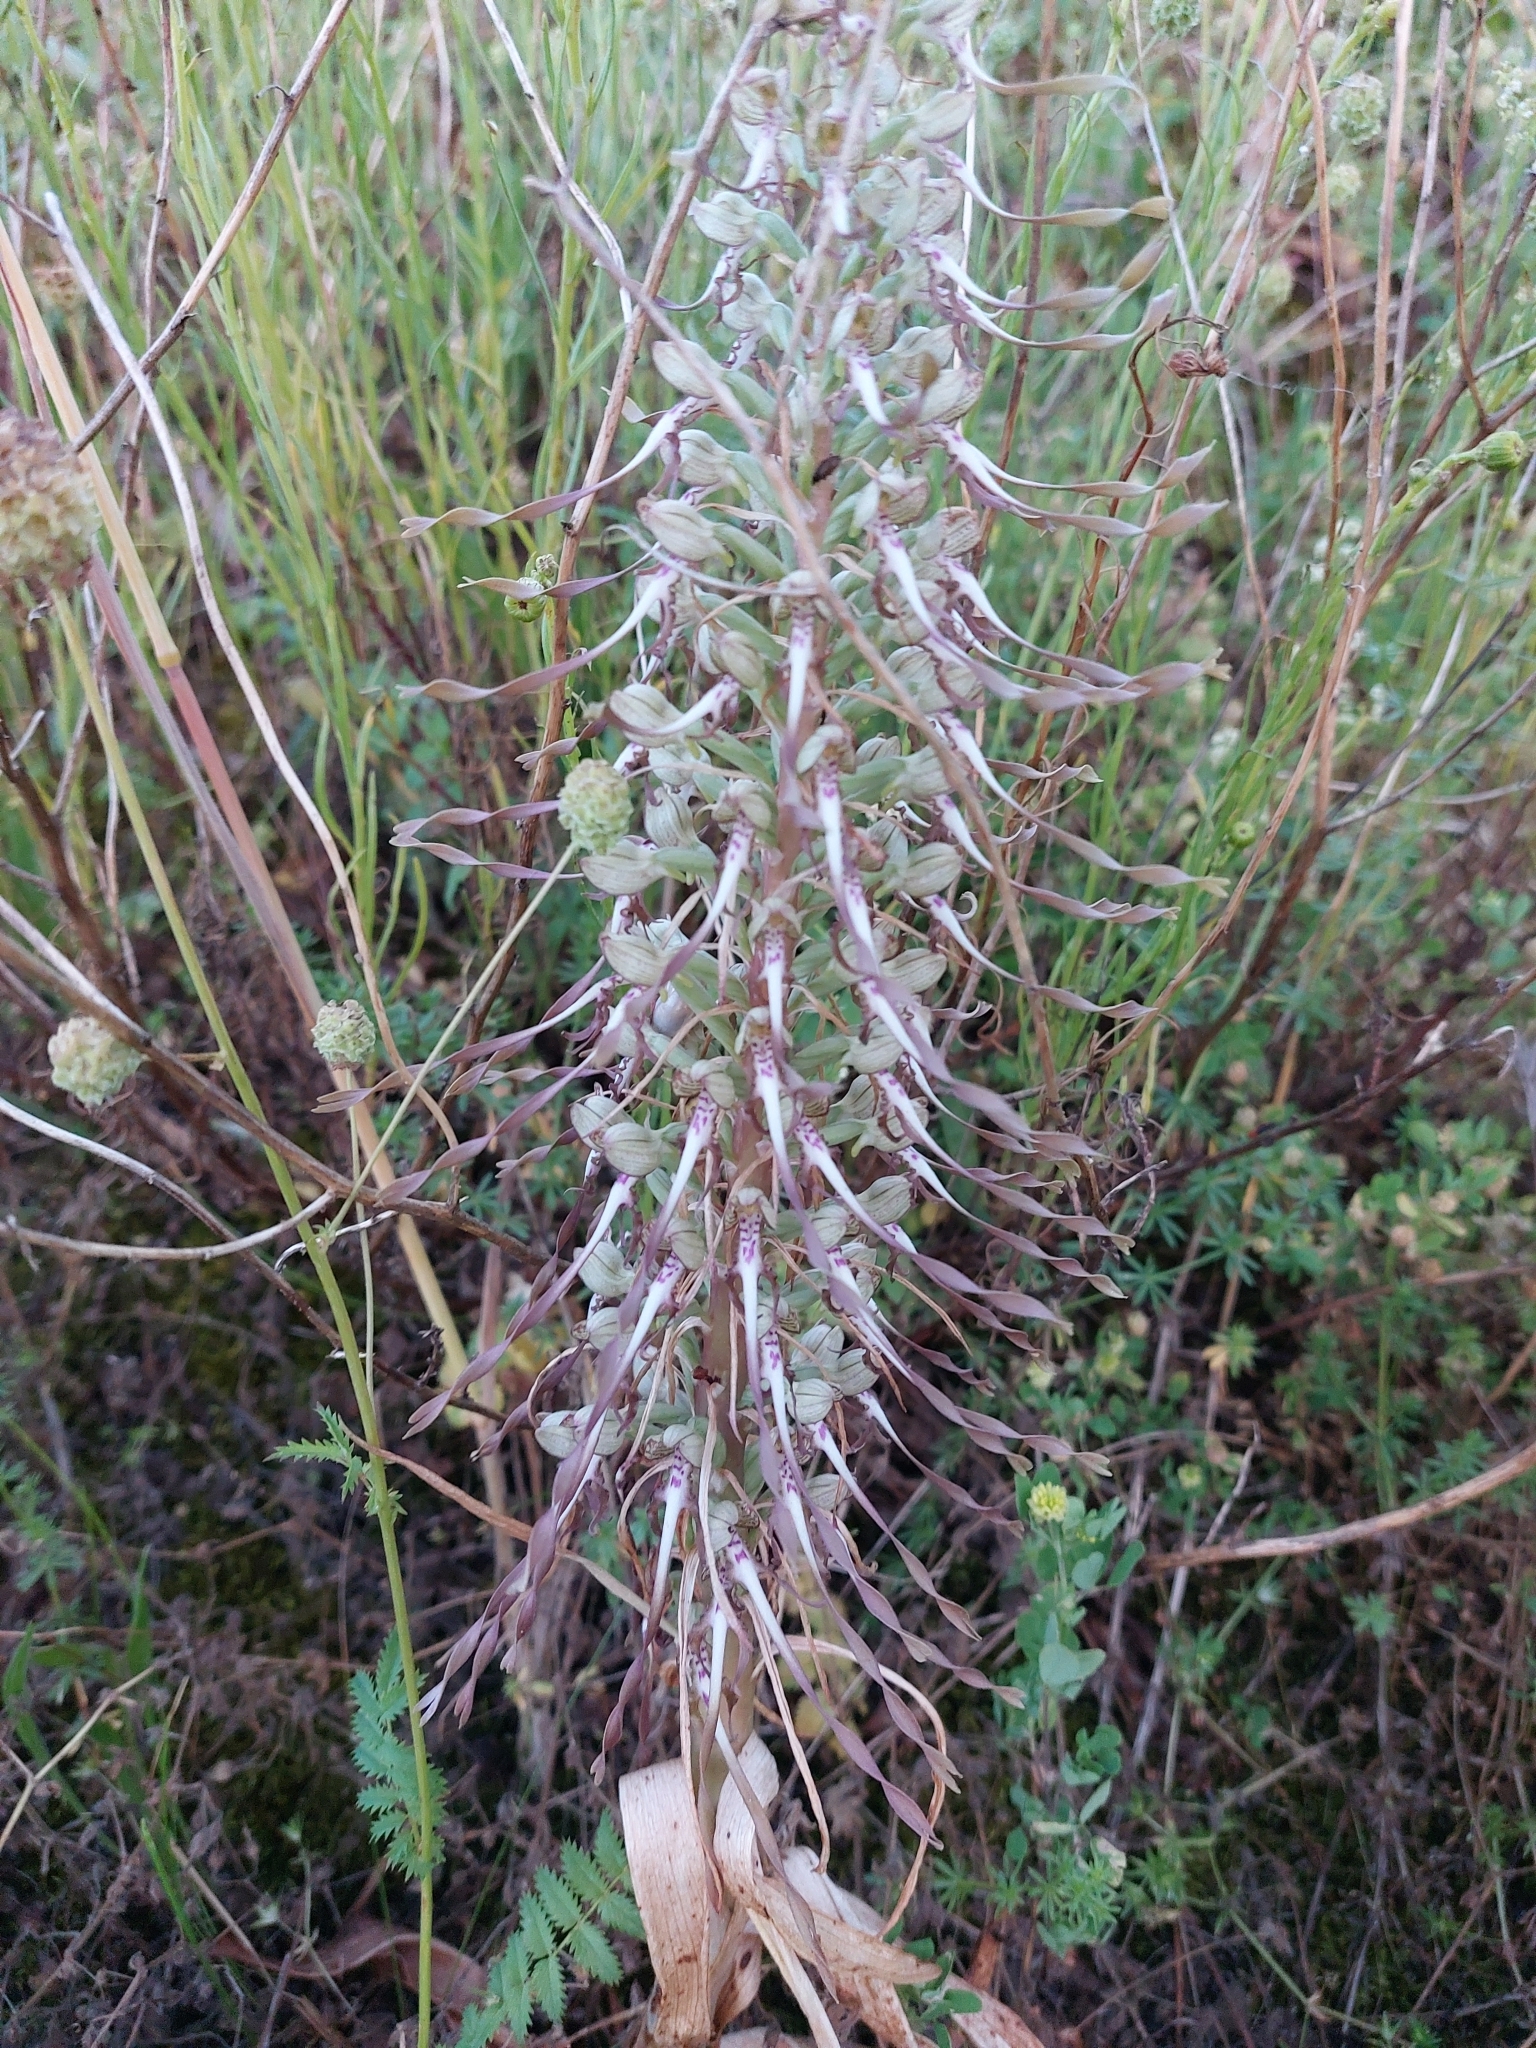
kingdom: Plantae
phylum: Tracheophyta
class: Liliopsida
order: Asparagales
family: Orchidaceae
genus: Himantoglossum
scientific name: Himantoglossum hircinum
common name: Lizard orchid
